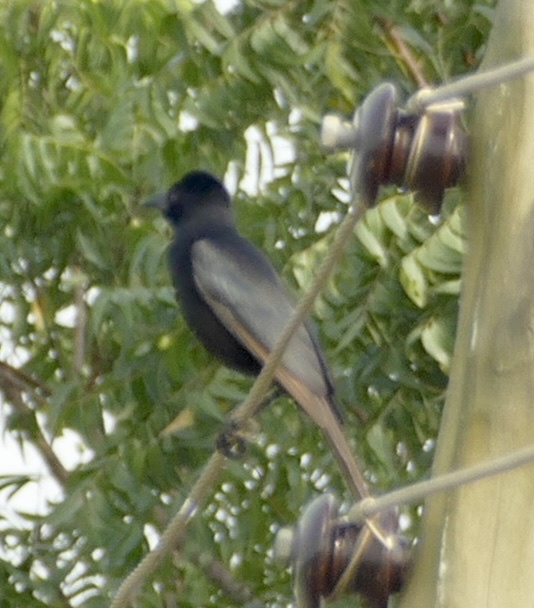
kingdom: Animalia
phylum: Chordata
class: Aves
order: Passeriformes
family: Corvidae
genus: Ptilostomus
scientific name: Ptilostomus afer
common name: Piapiac
